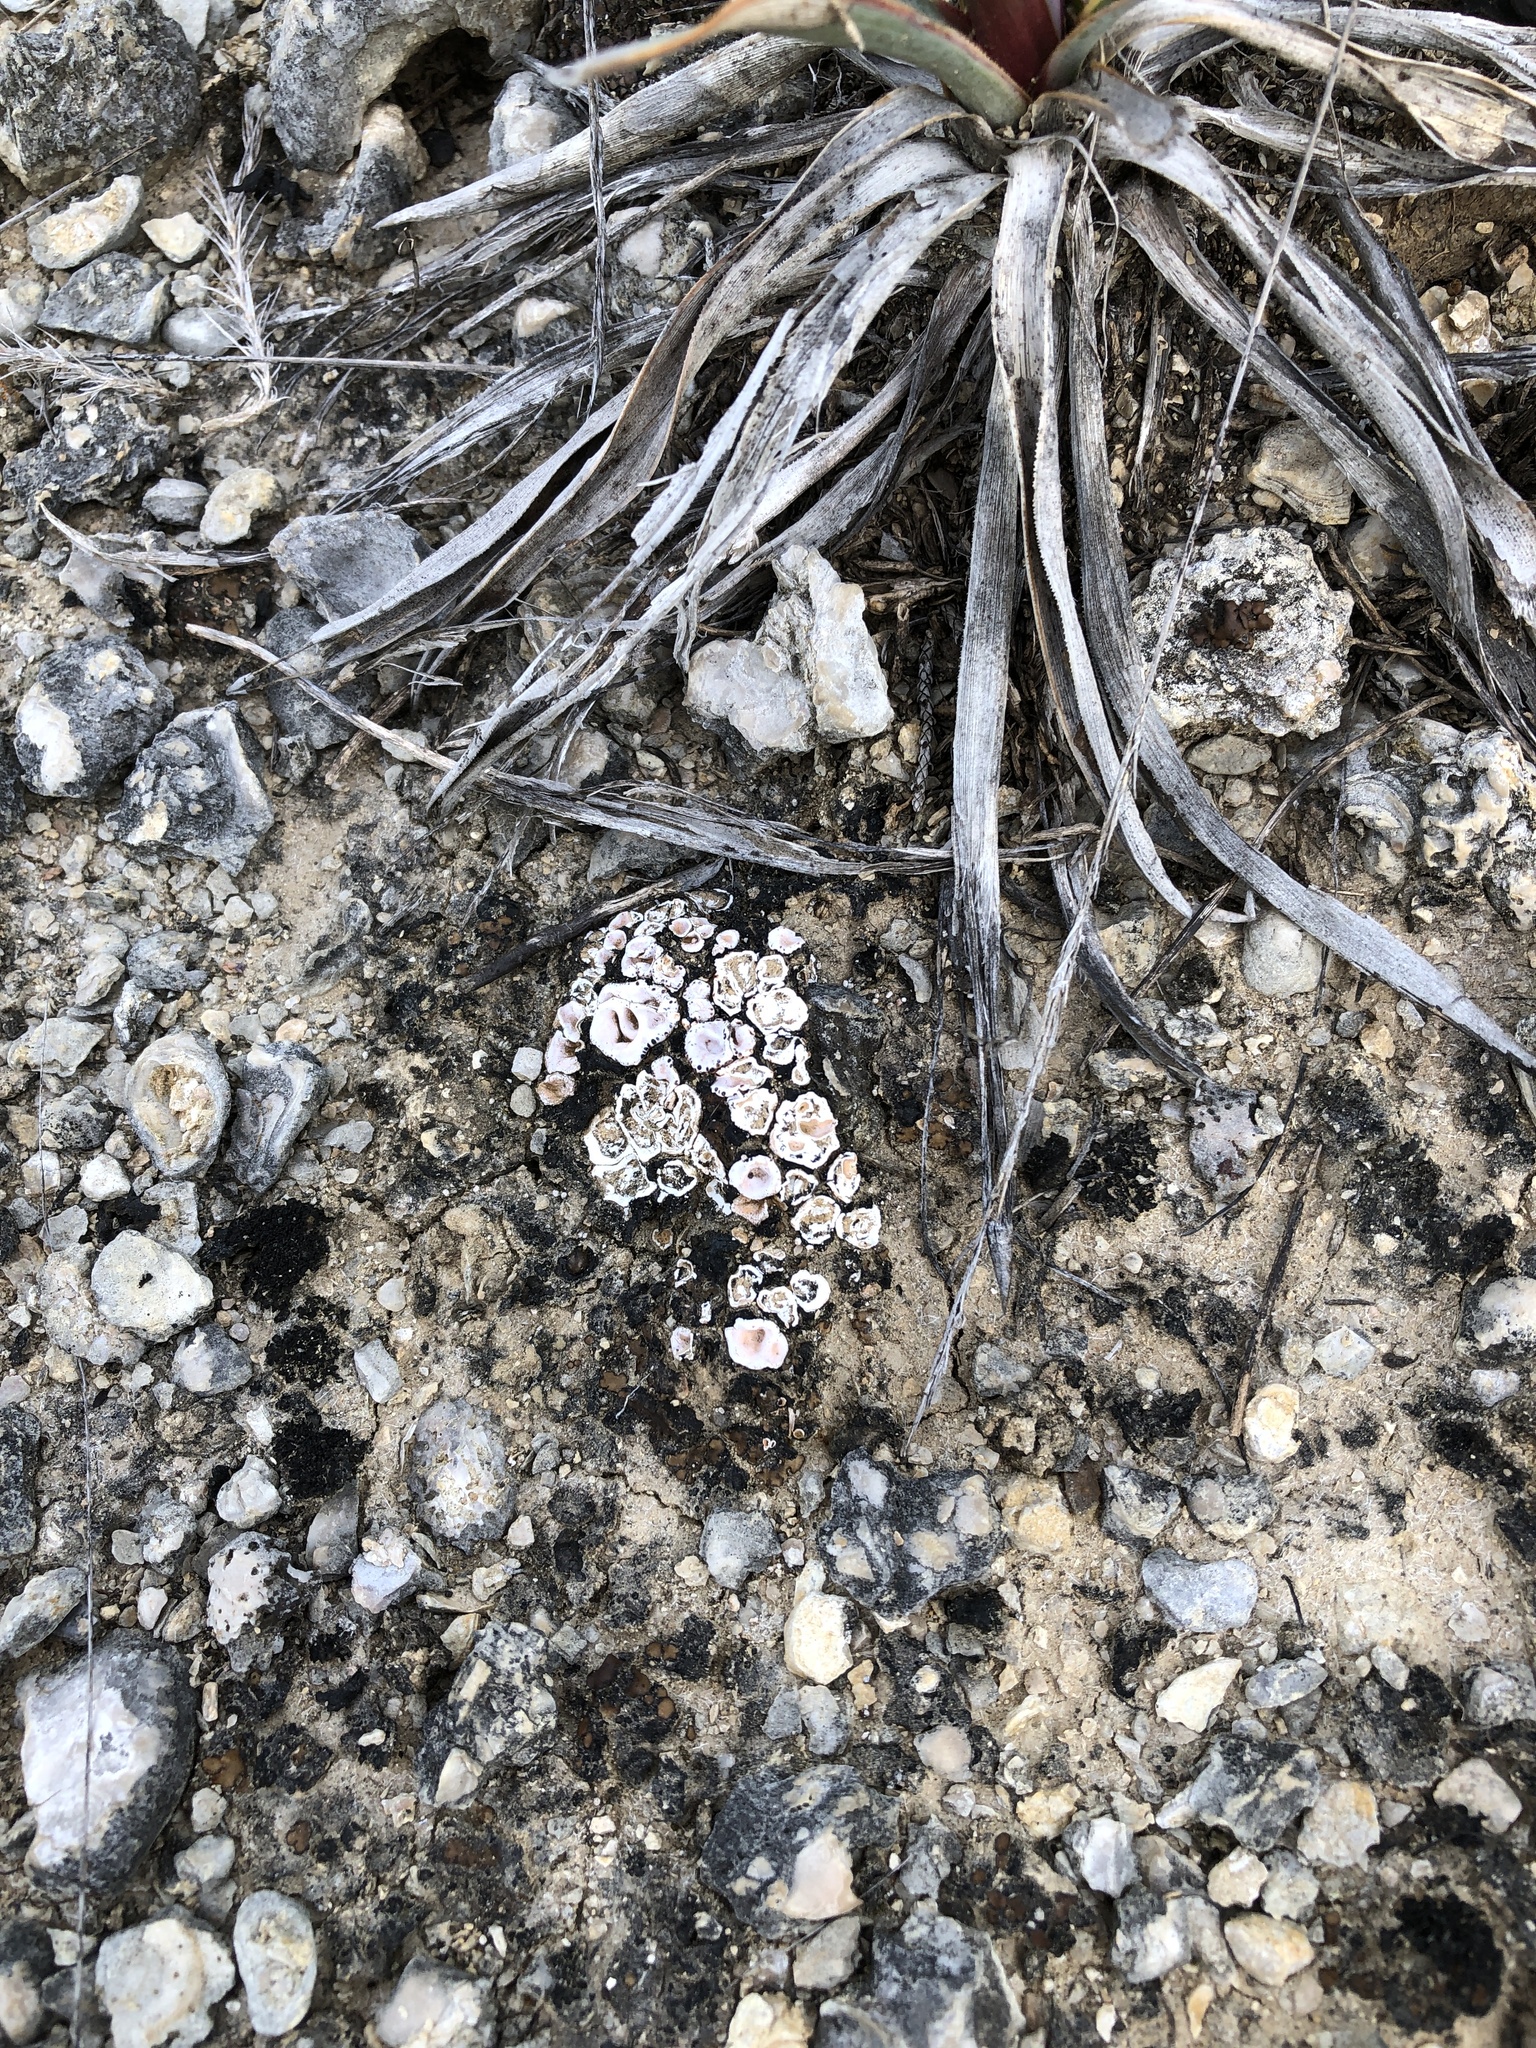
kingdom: Fungi
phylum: Ascomycota
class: Lecanoromycetes
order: Lecanorales
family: Psoraceae
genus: Psora
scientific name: Psora crenata
